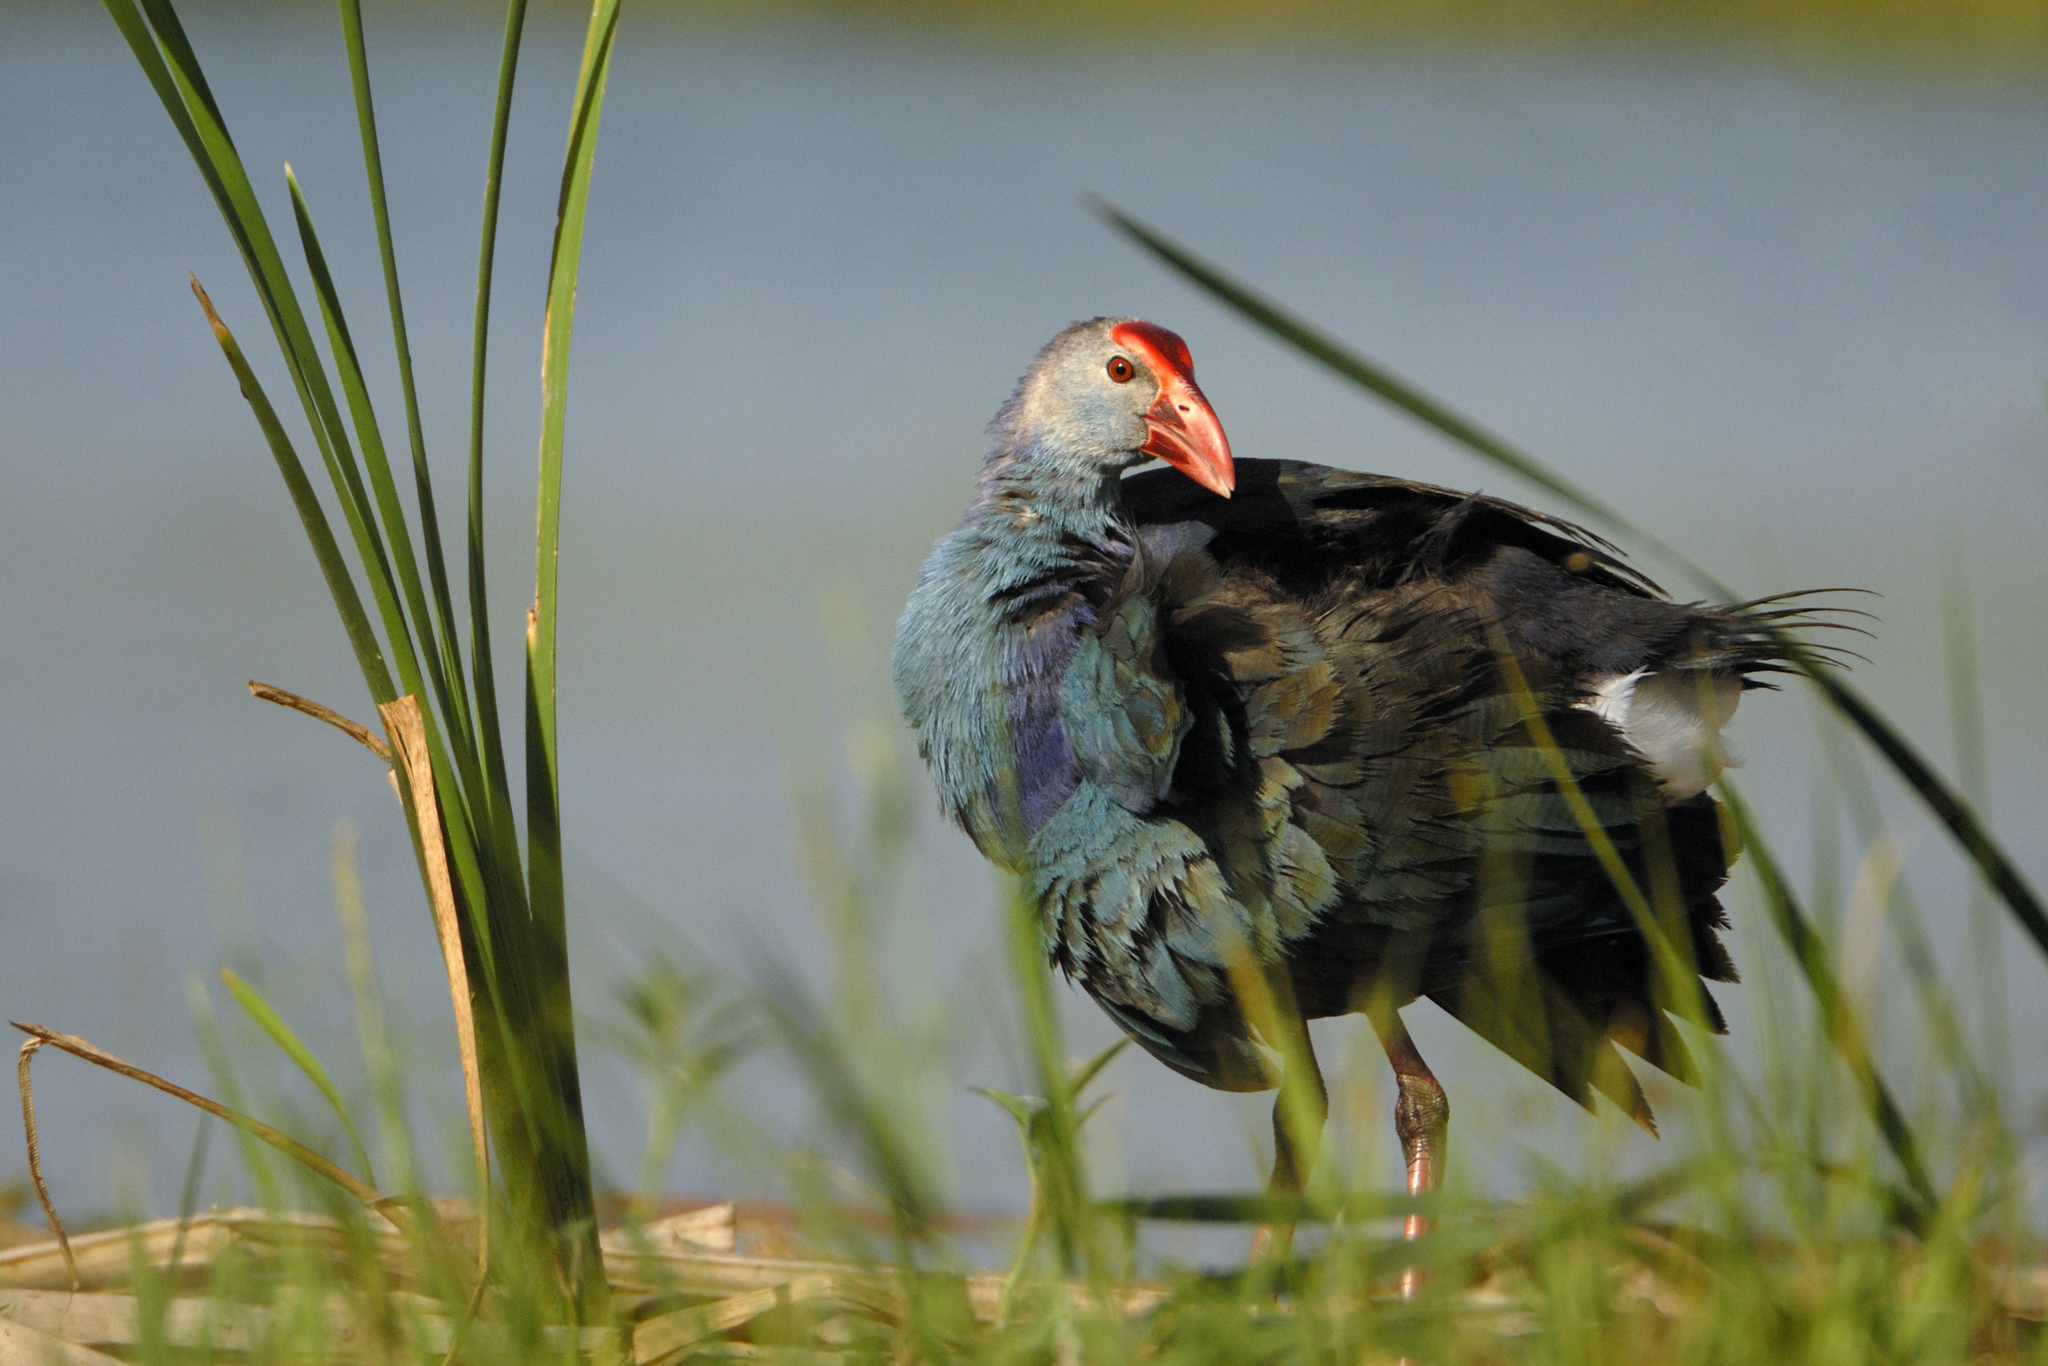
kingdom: Animalia
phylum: Chordata
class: Aves
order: Gruiformes
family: Rallidae
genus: Porphyrio
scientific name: Porphyrio porphyrio
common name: Purple swamphen
